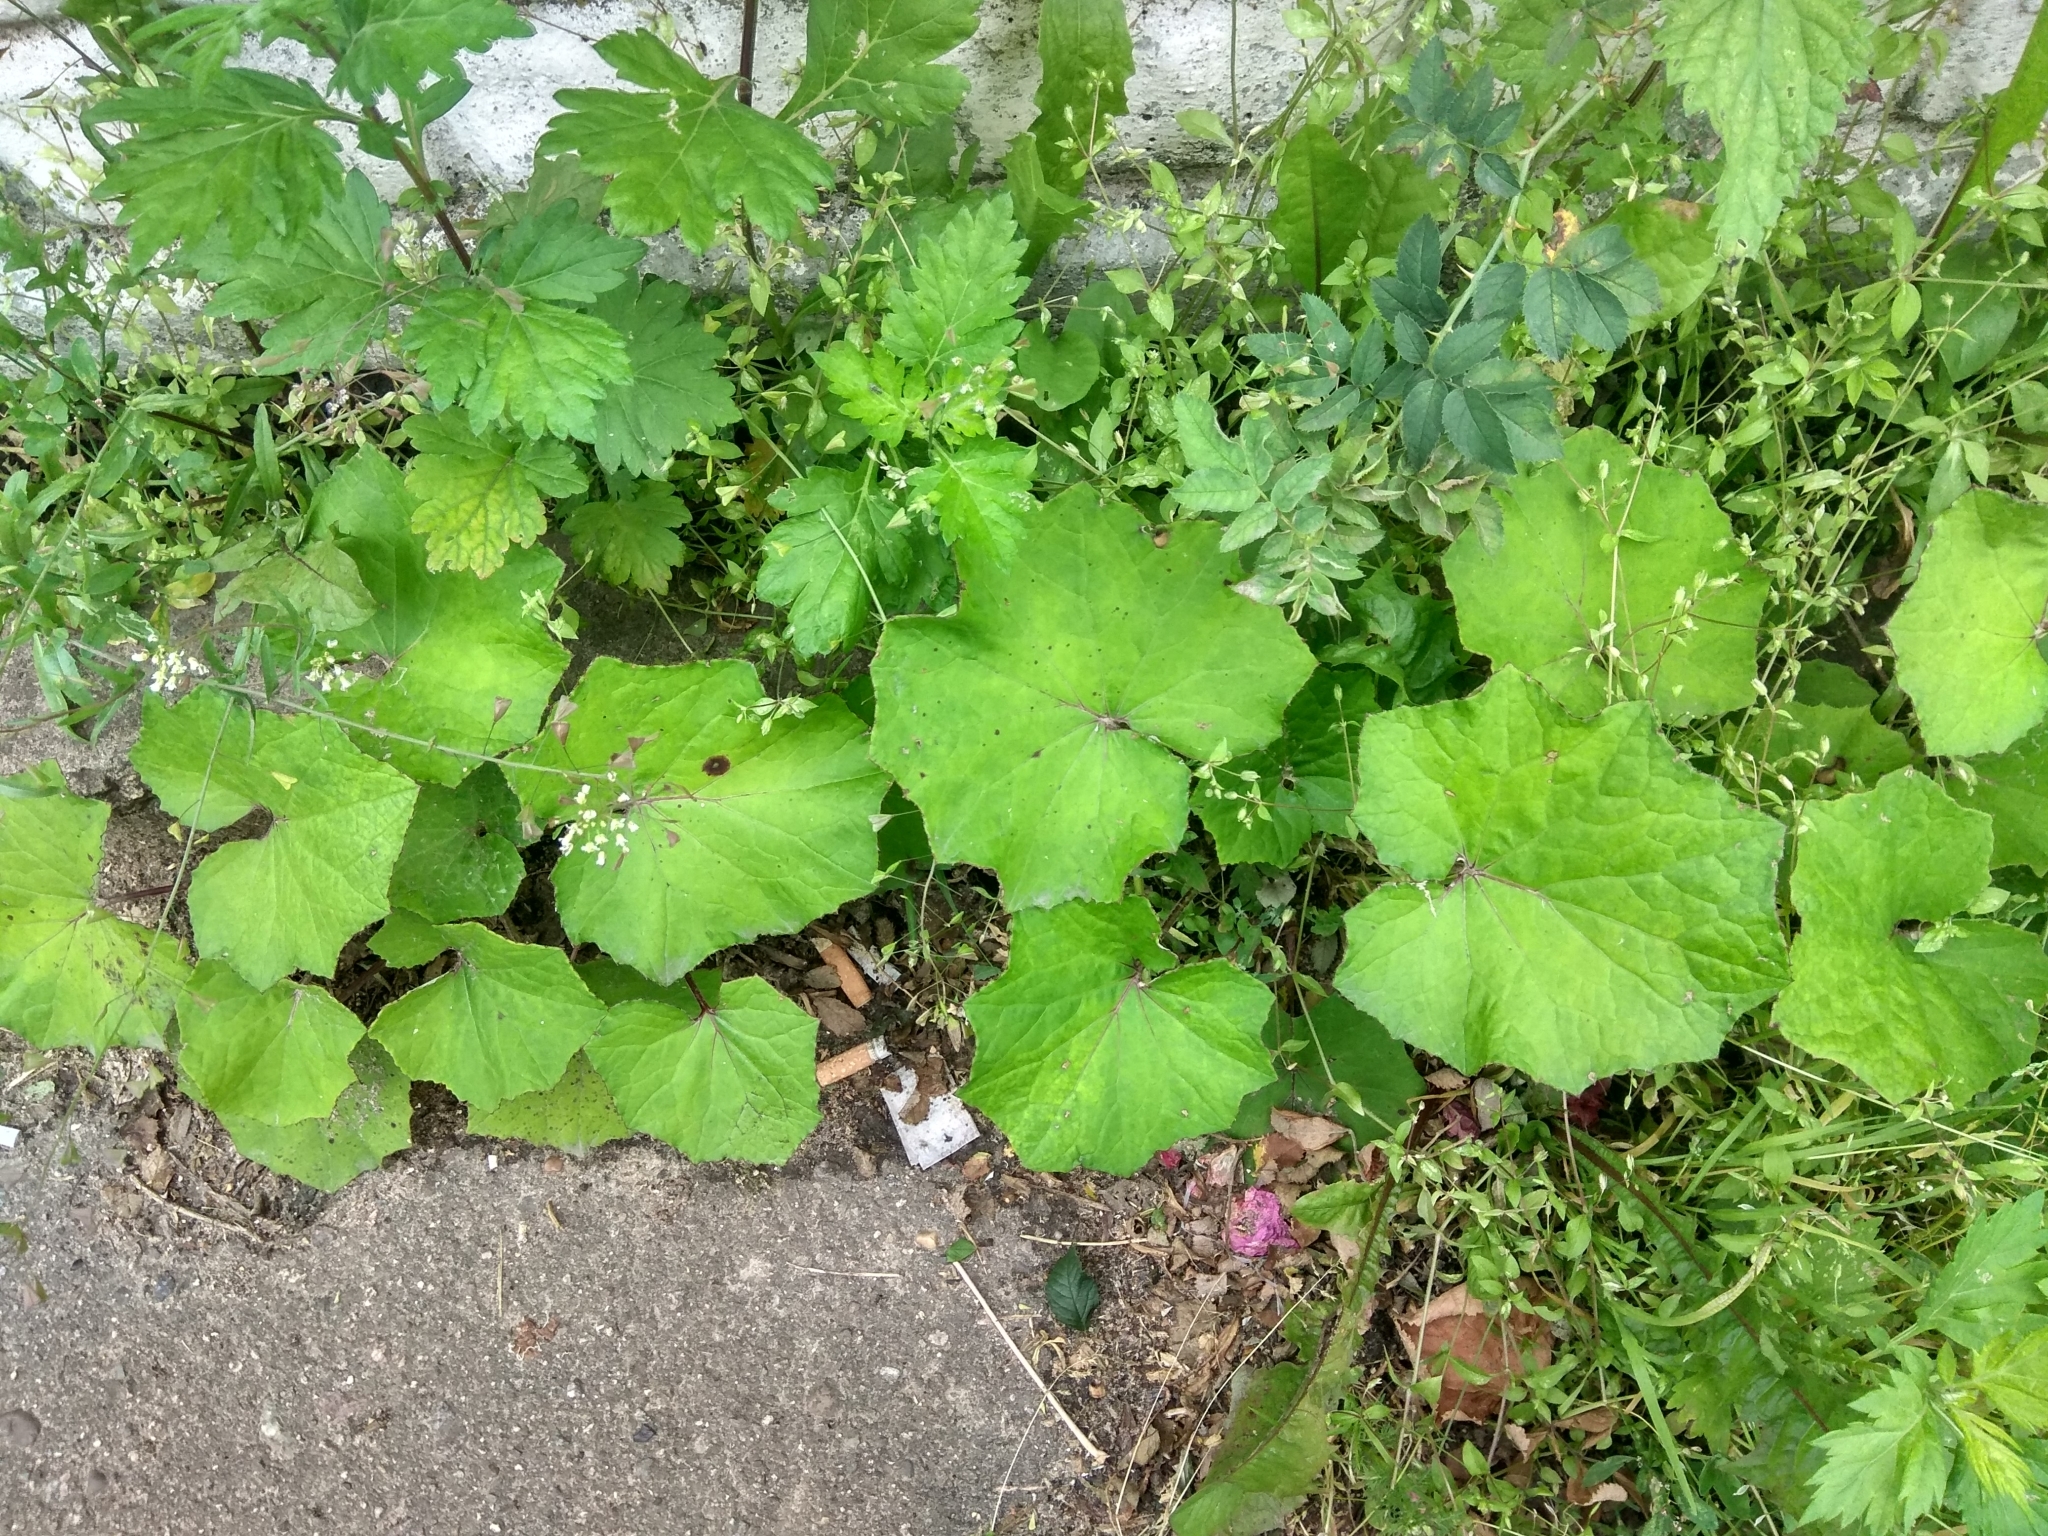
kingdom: Plantae
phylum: Tracheophyta
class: Magnoliopsida
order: Asterales
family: Asteraceae
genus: Tussilago
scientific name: Tussilago farfara
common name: Coltsfoot
